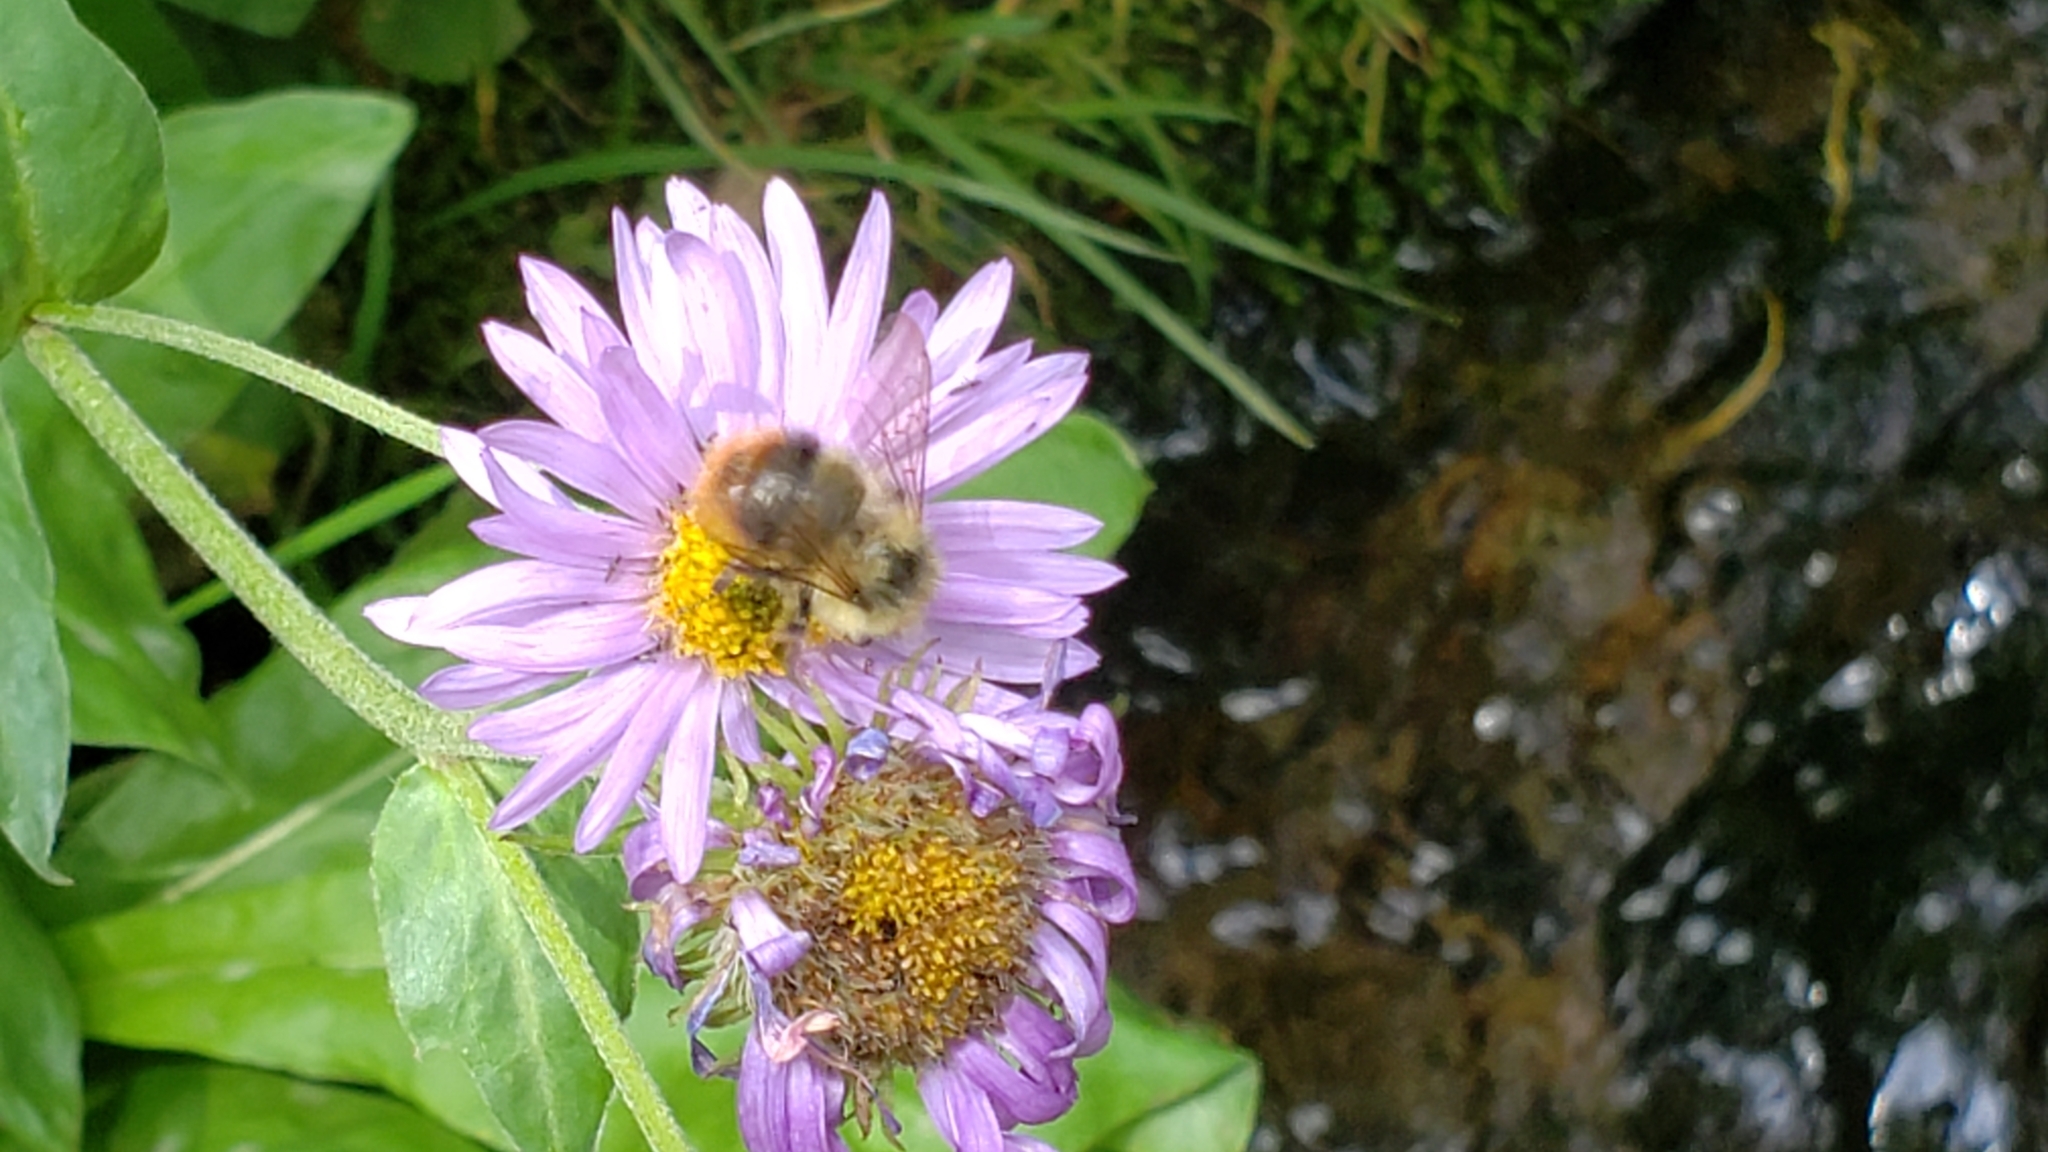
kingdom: Animalia
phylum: Arthropoda
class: Insecta
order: Hymenoptera
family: Apidae
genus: Bombus
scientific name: Bombus mixtus
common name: Fuzzy-horned bumble bee
